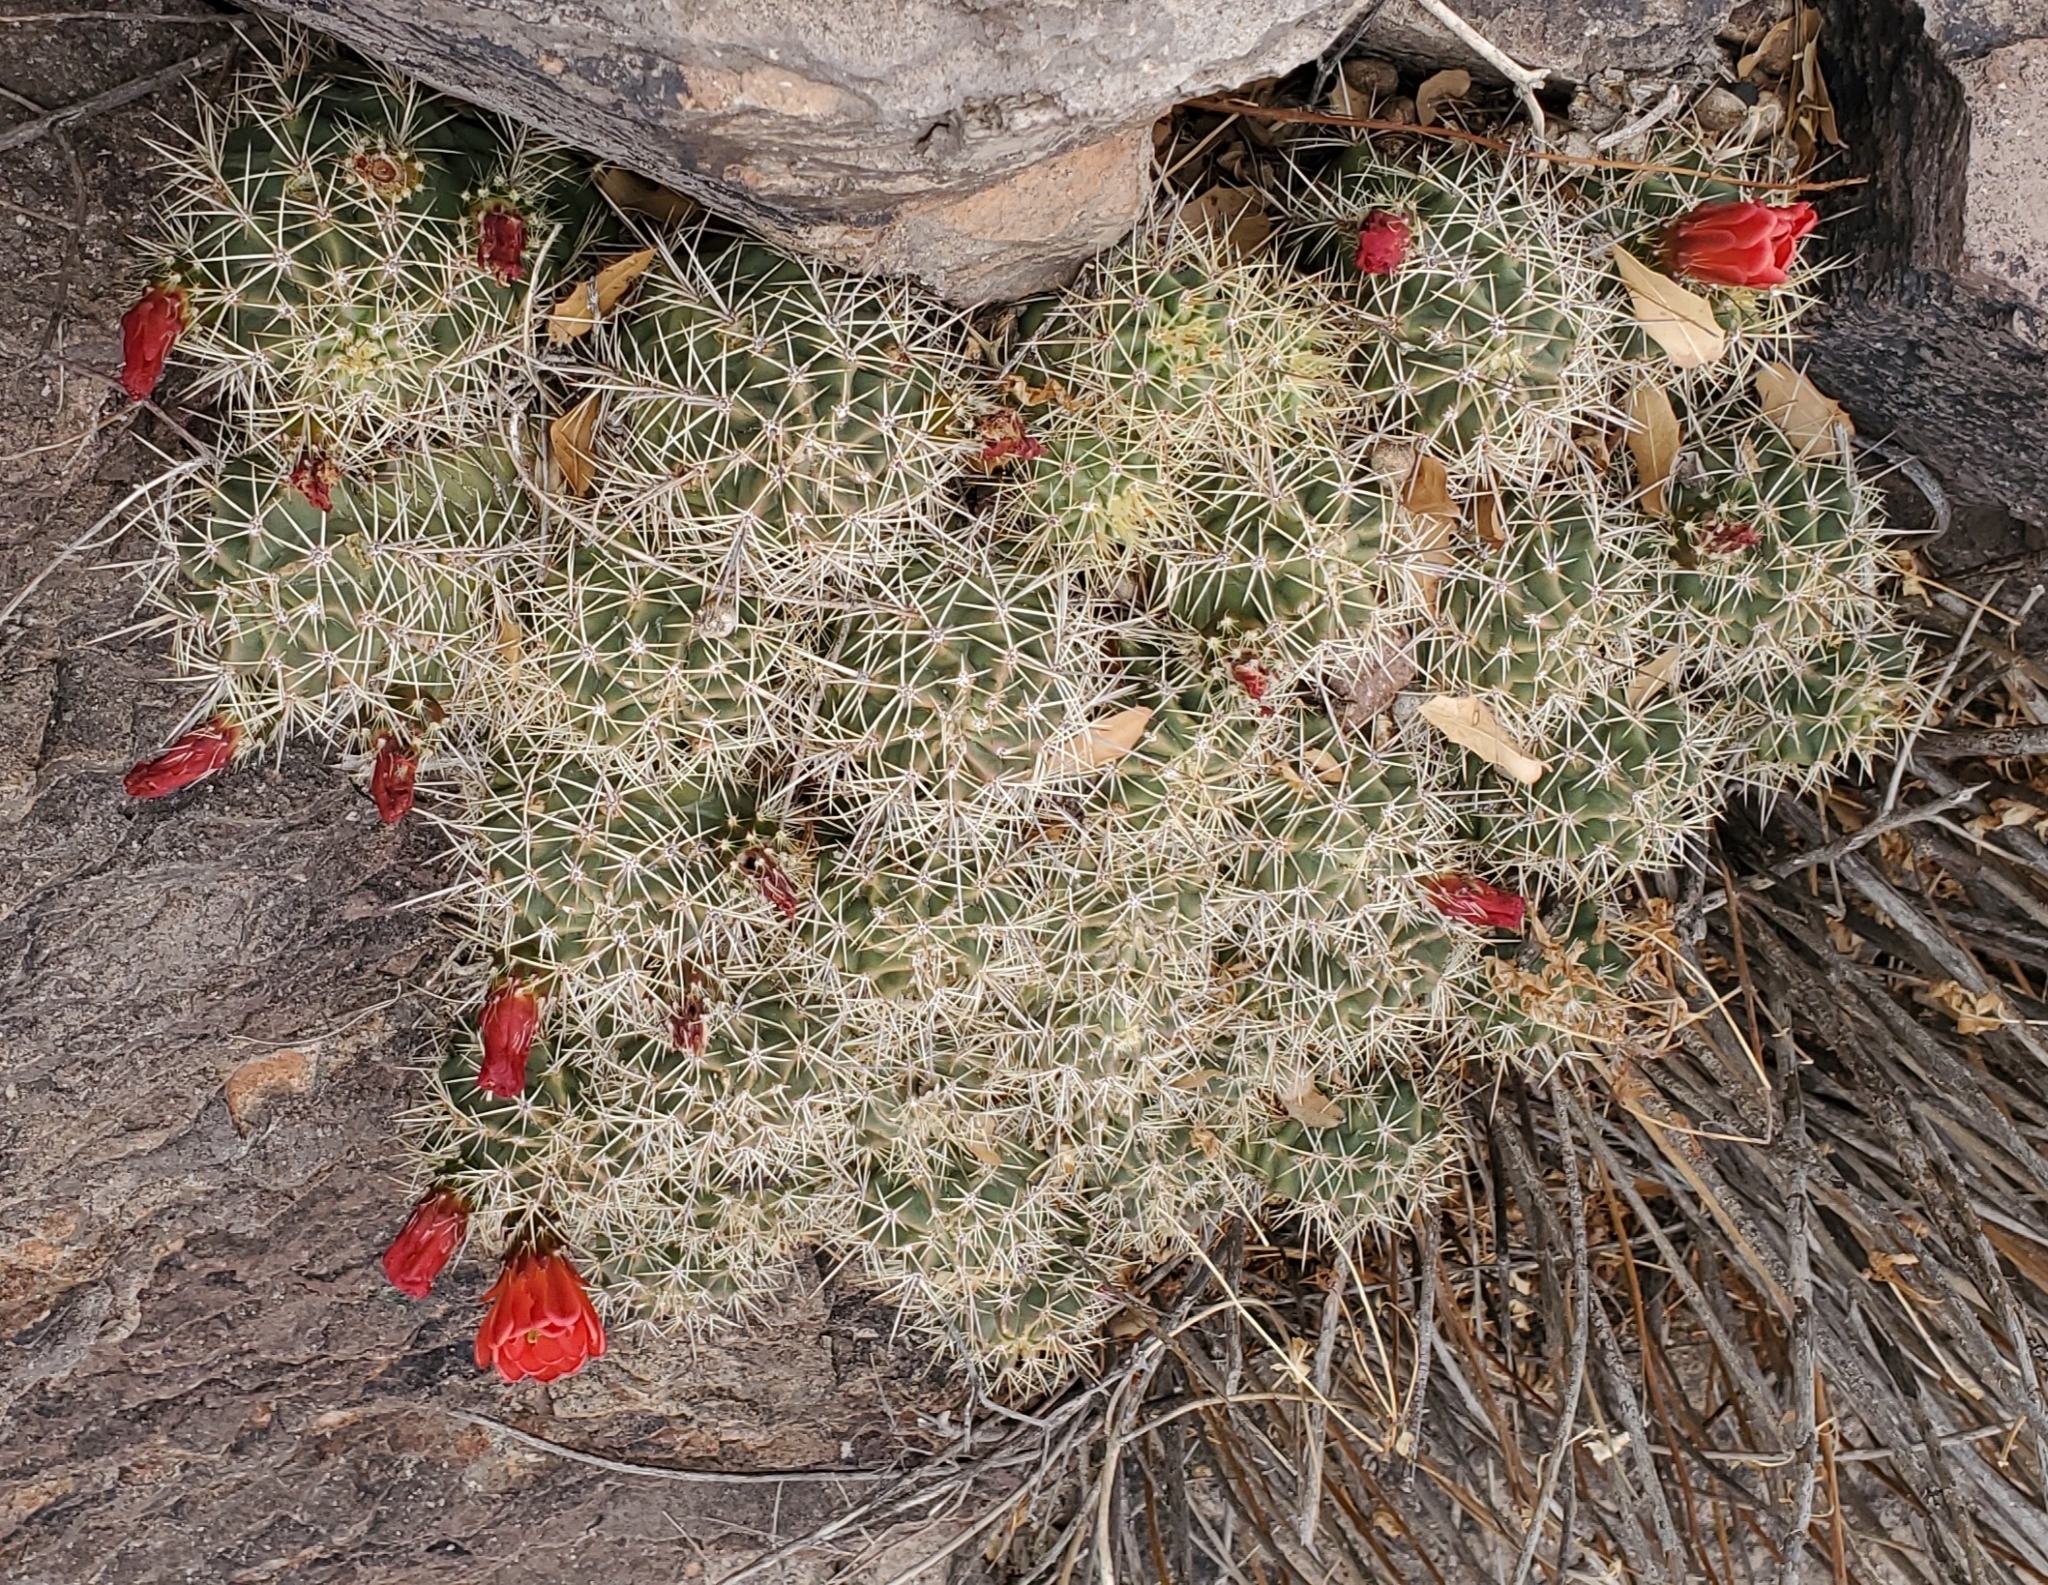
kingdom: Plantae
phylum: Tracheophyta
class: Magnoliopsida
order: Caryophyllales
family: Cactaceae
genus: Echinocereus
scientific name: Echinocereus coccineus
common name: Scarlet hedgehog cactus
